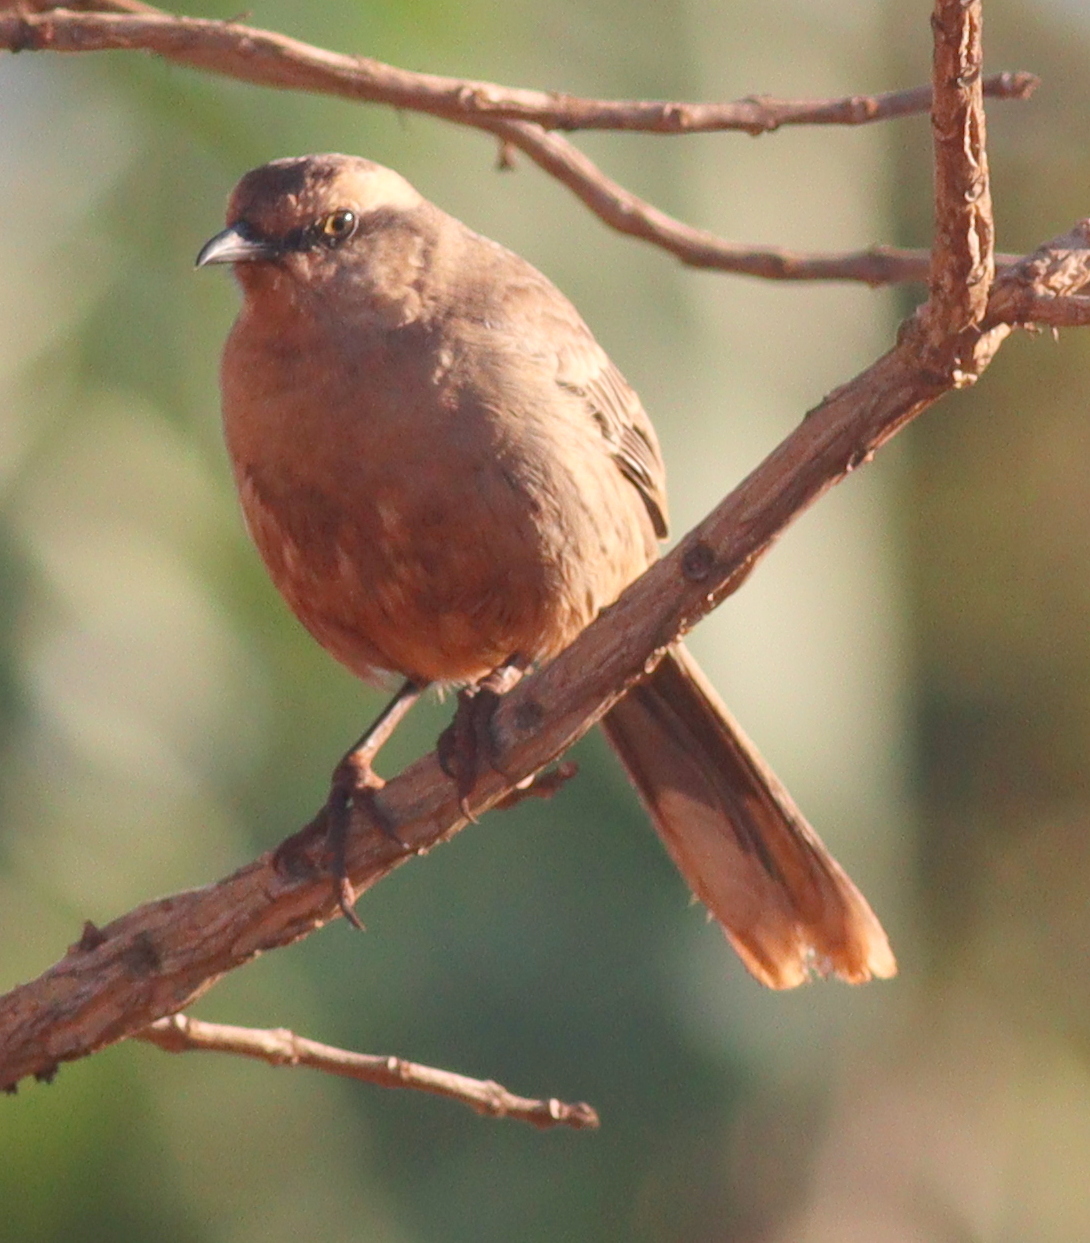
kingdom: Animalia
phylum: Chordata
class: Aves
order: Passeriformes
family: Mimidae
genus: Mimus
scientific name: Mimus saturninus
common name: Chalk-browed mockingbird
